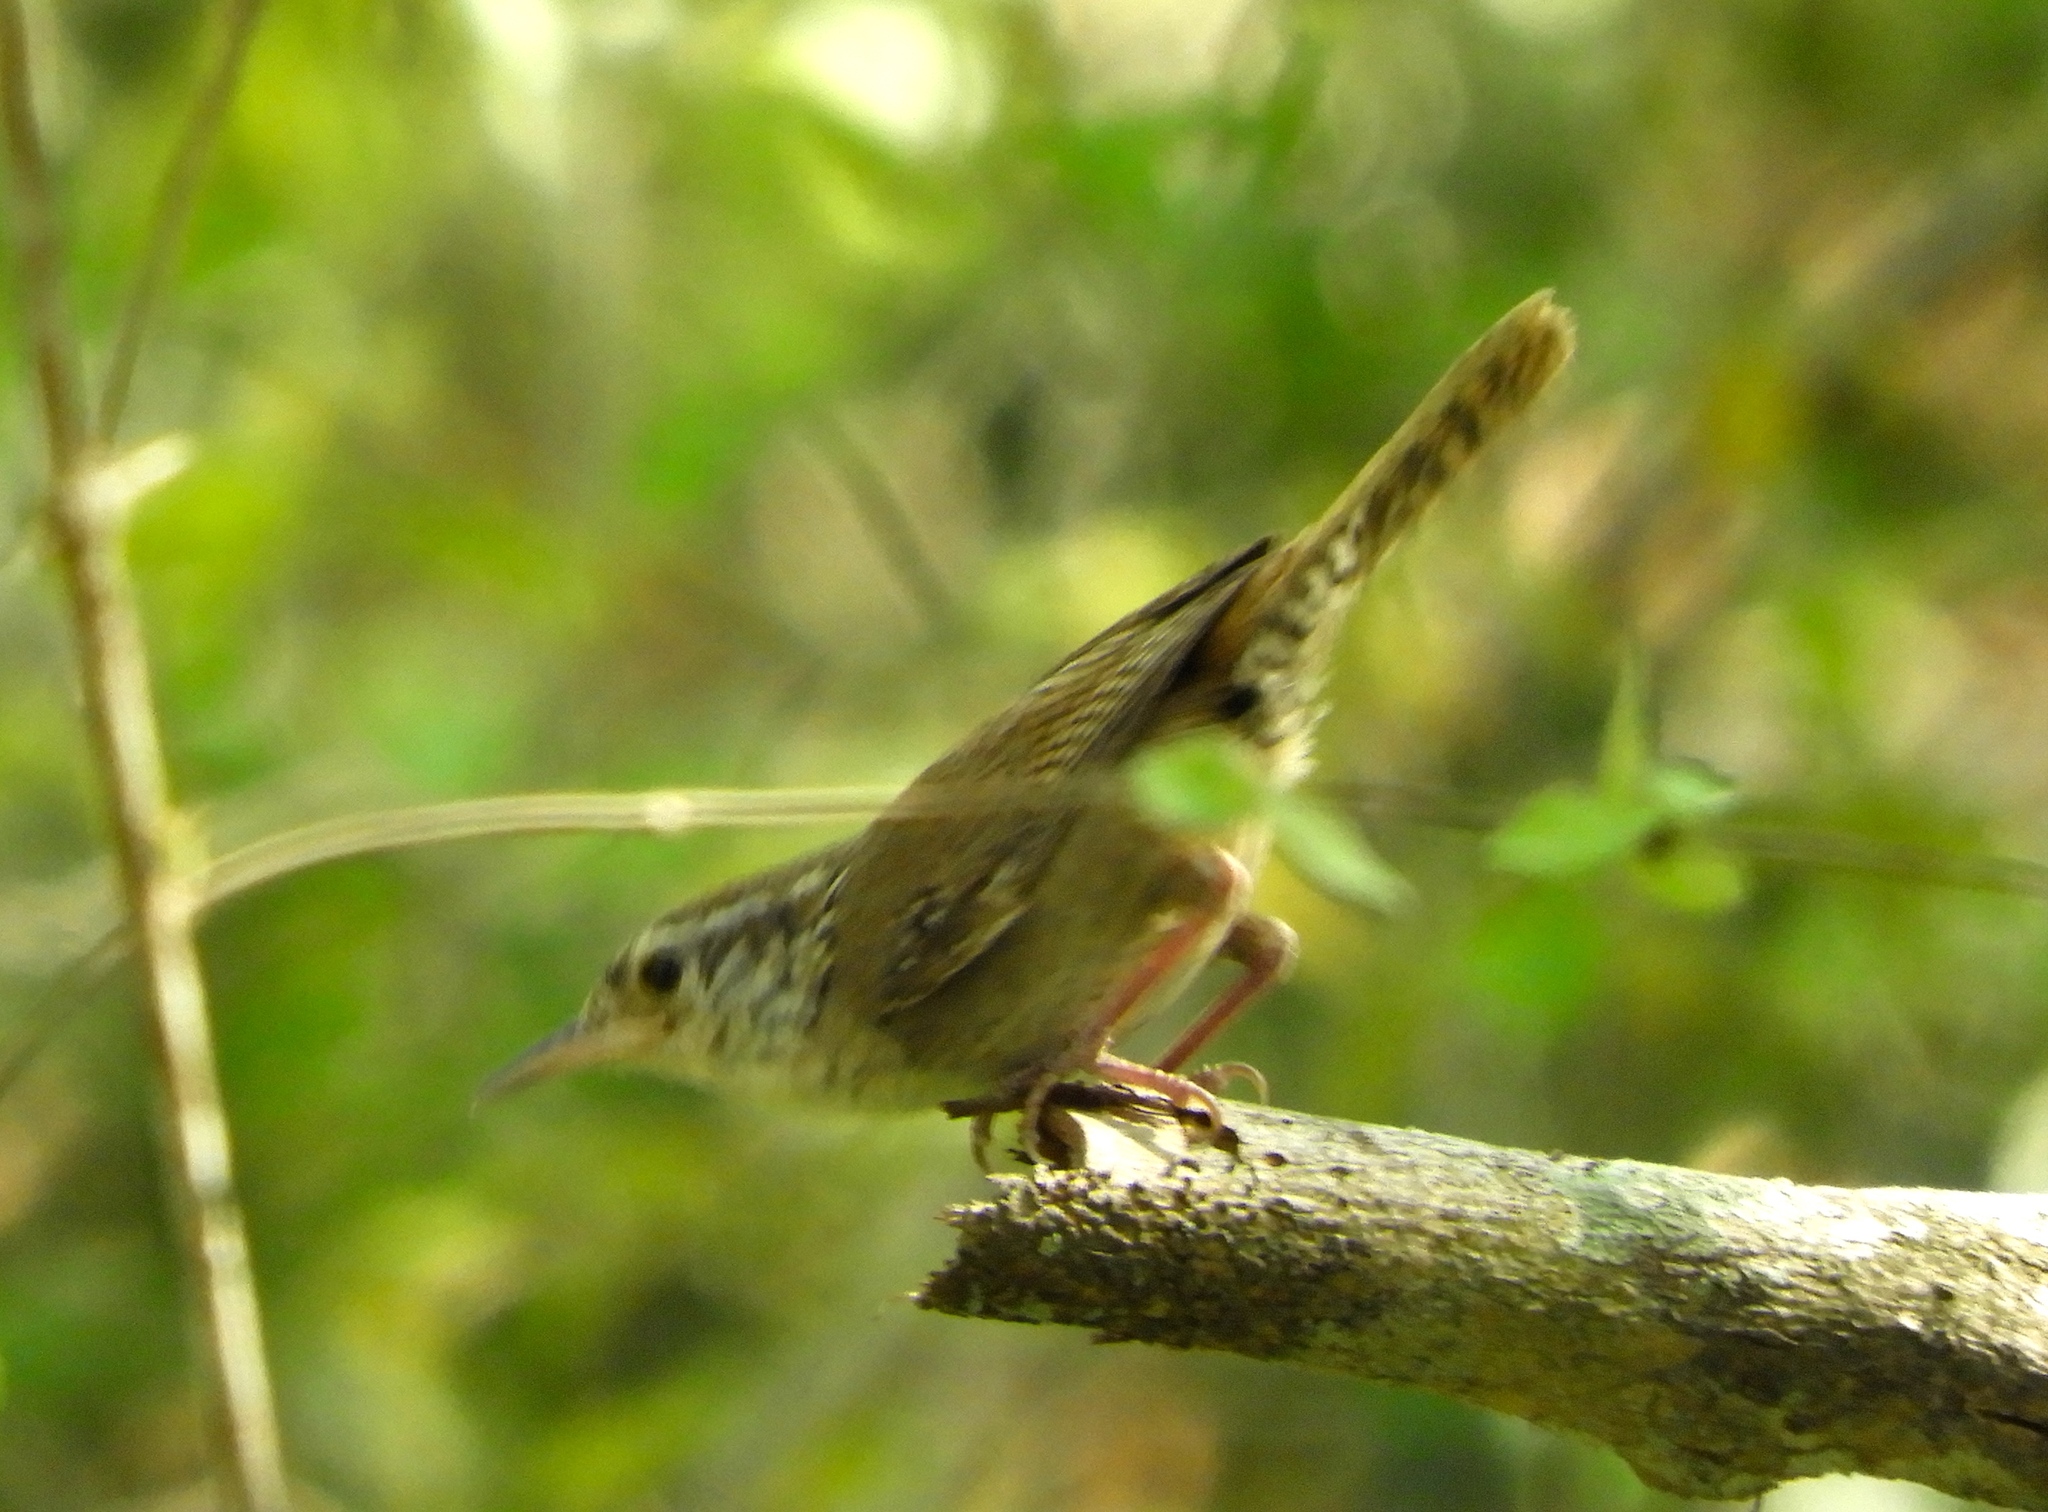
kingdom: Animalia
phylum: Chordata
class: Aves
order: Passeriformes
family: Troglodytidae
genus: Thryophilus
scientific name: Thryophilus sinaloa
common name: Sinaloa wren
